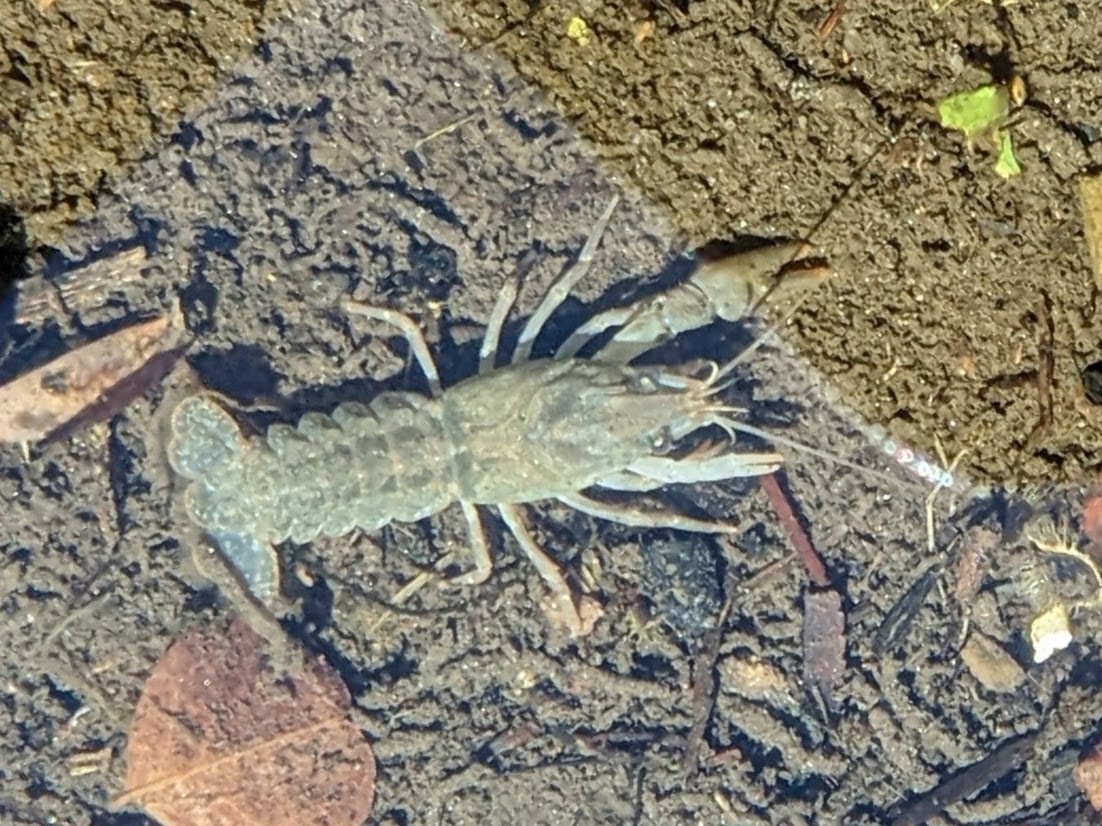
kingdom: Animalia
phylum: Arthropoda
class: Malacostraca
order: Decapoda
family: Astacidae
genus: Austropotamobius
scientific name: Austropotamobius pallipes
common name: White-clawed crayfish
